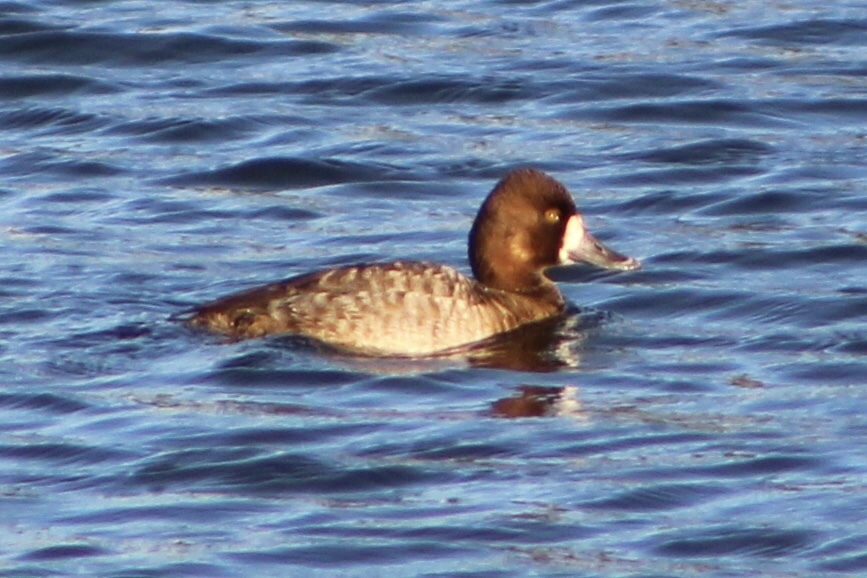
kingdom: Animalia
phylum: Chordata
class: Aves
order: Anseriformes
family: Anatidae
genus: Aythya
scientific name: Aythya affinis
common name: Lesser scaup
